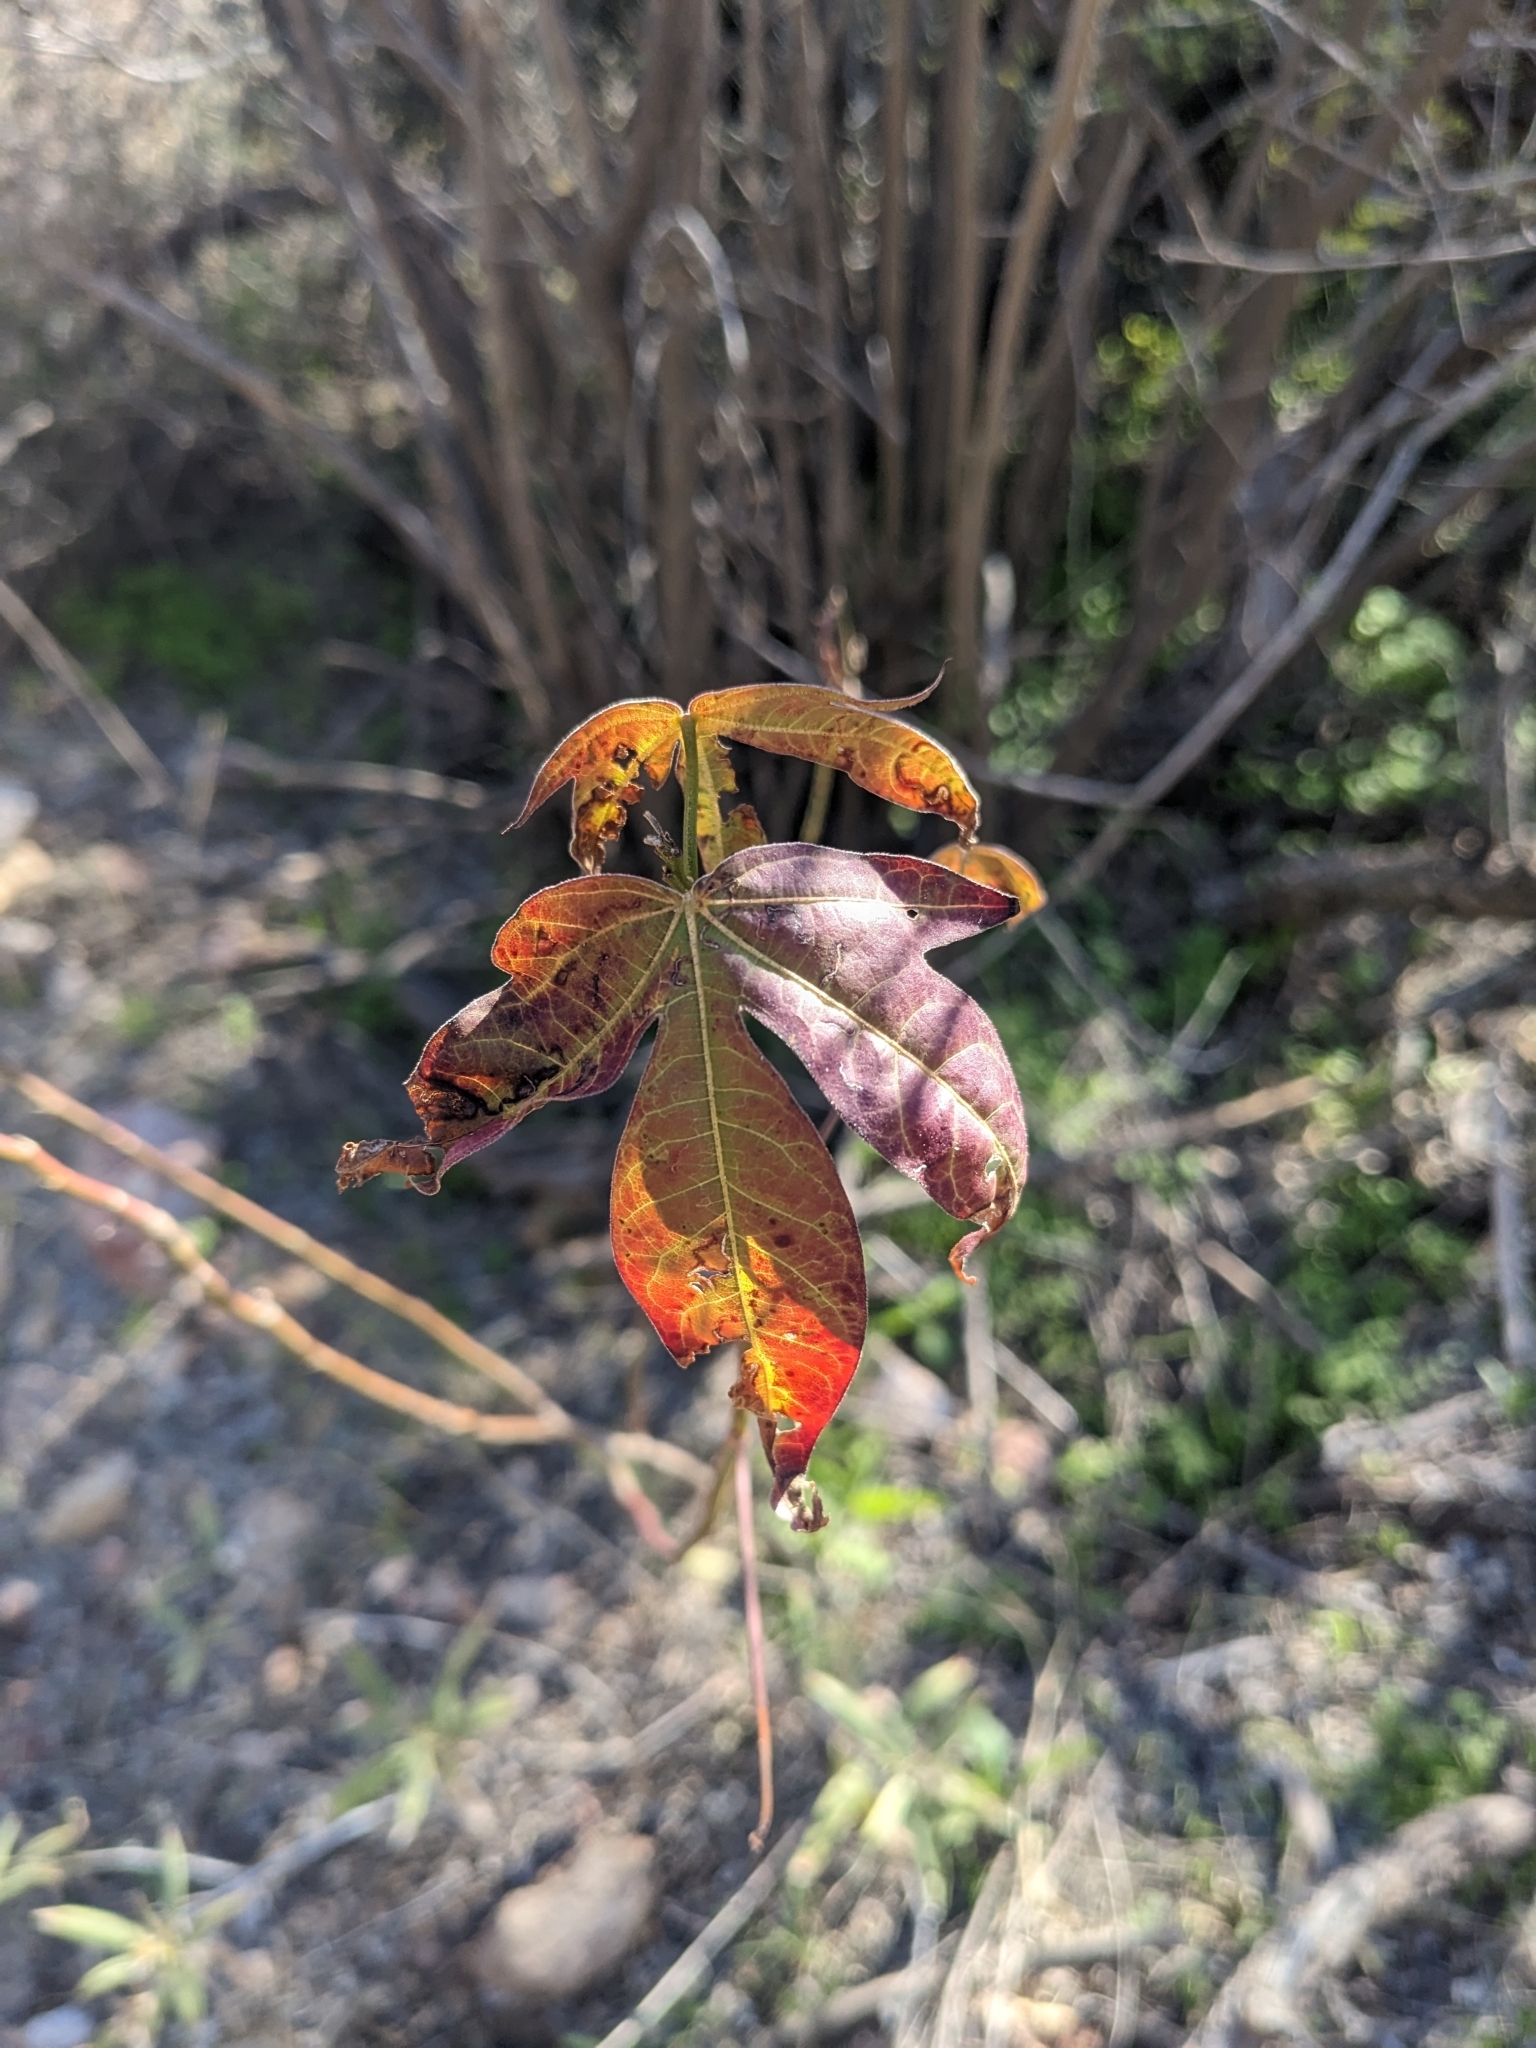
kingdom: Plantae
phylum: Tracheophyta
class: Magnoliopsida
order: Malvales
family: Malvaceae
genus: Gossypium
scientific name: Gossypium thurberi
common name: Desert cotton
